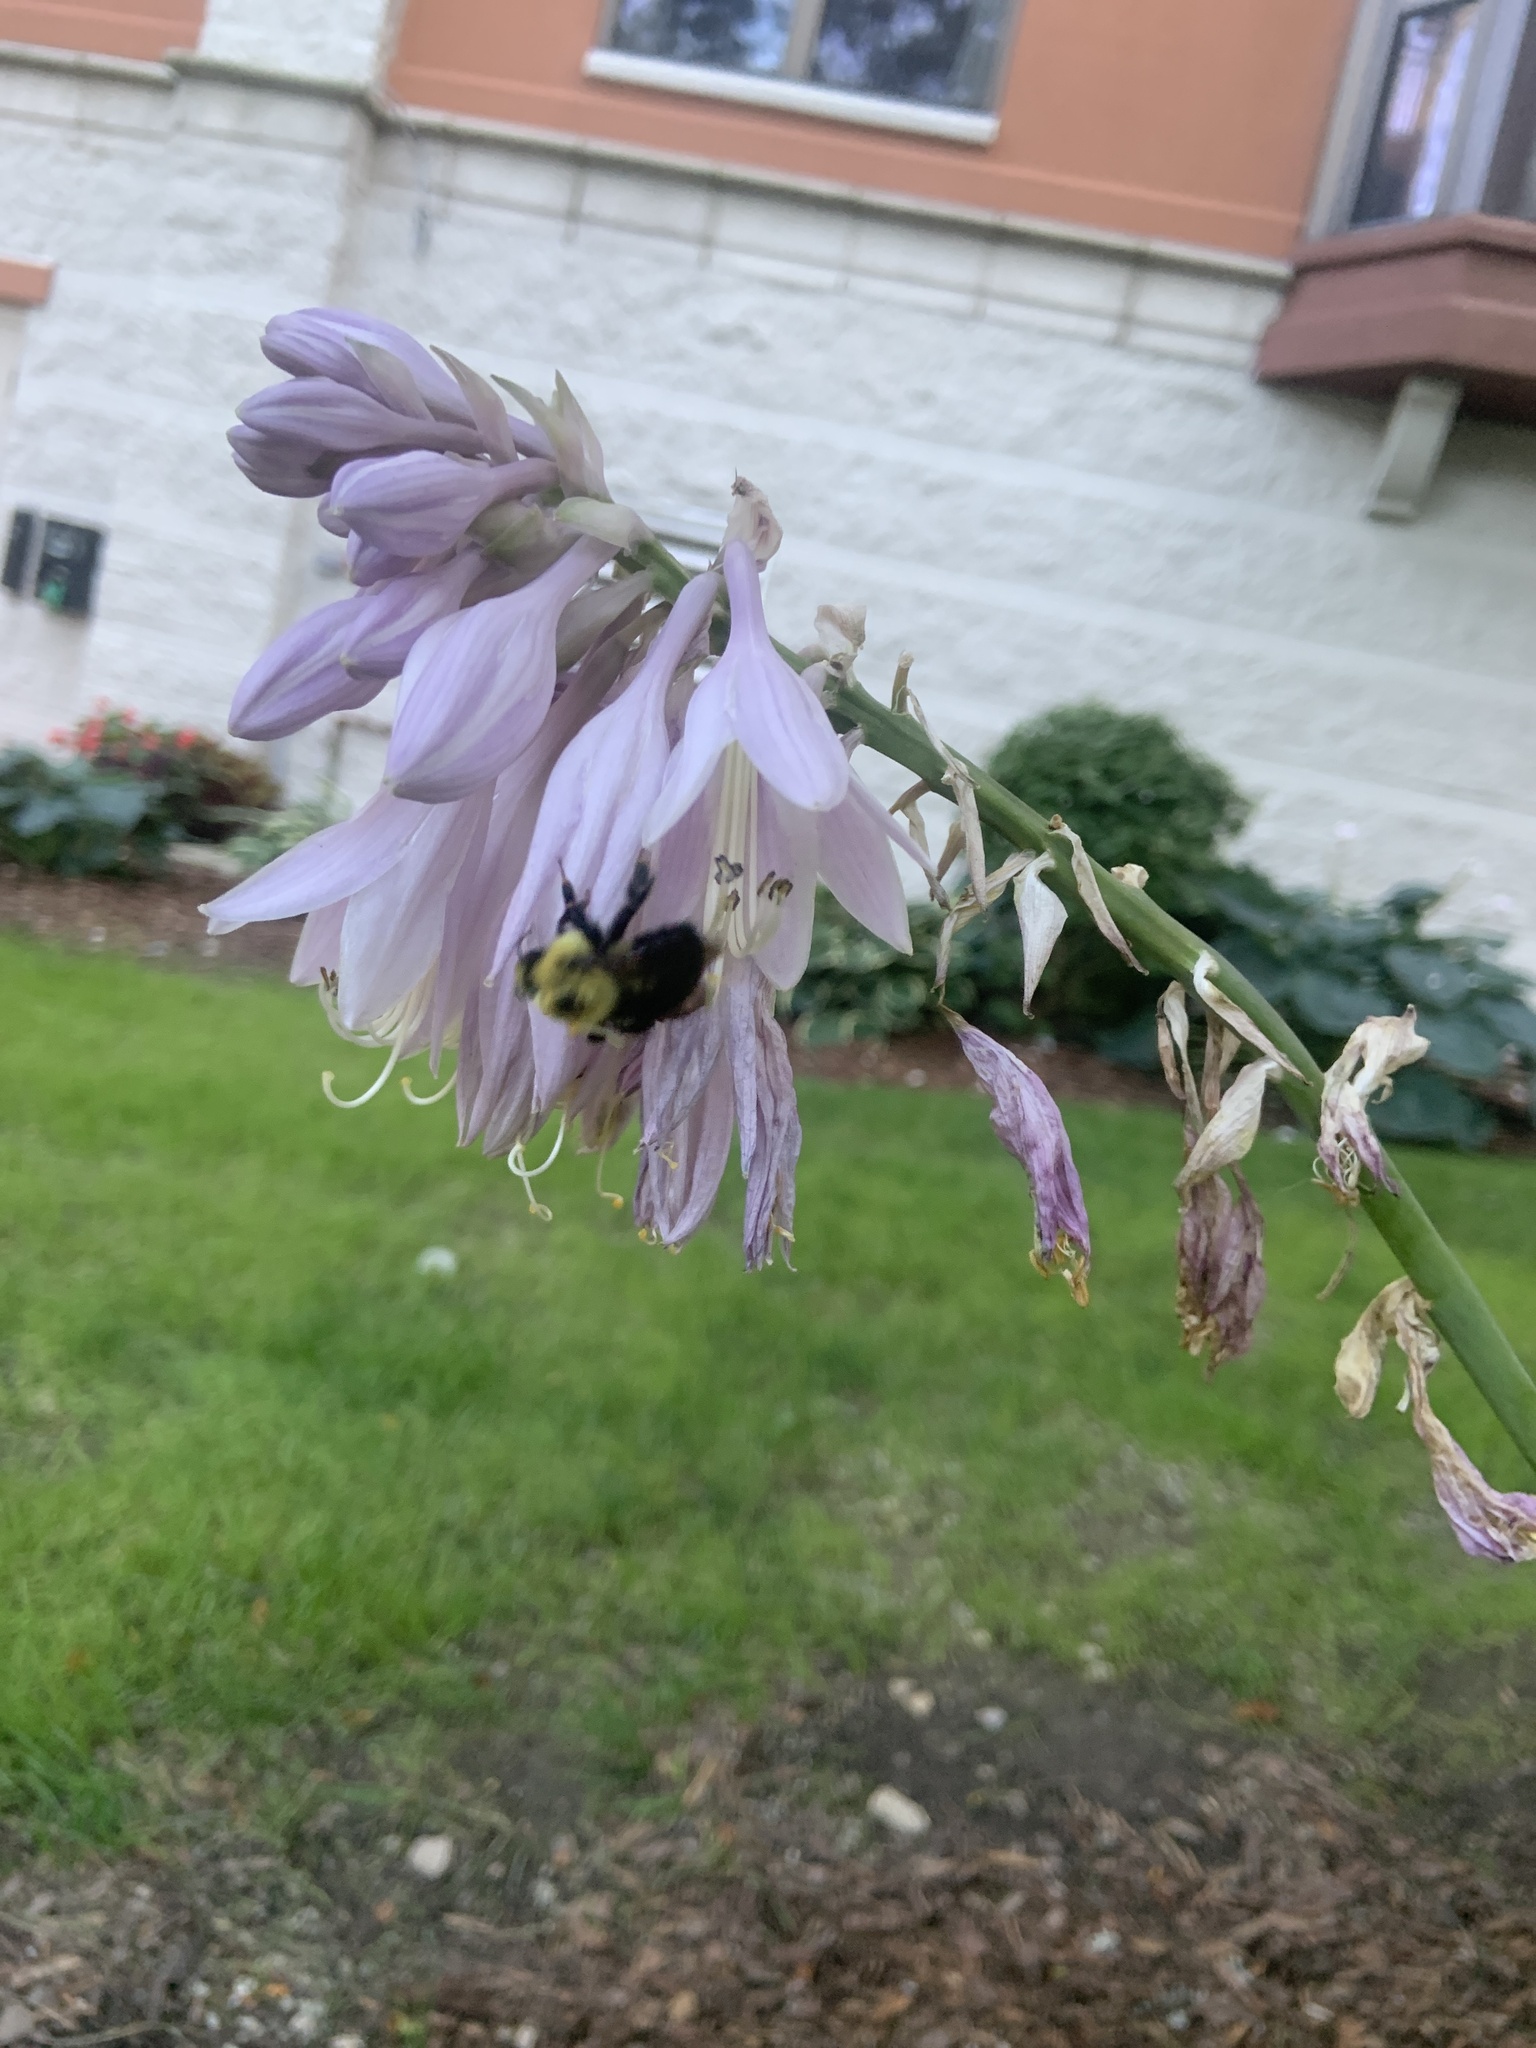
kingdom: Animalia
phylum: Arthropoda
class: Insecta
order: Hymenoptera
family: Apidae
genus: Bombus
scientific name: Bombus bimaculatus
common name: Two-spotted bumble bee
